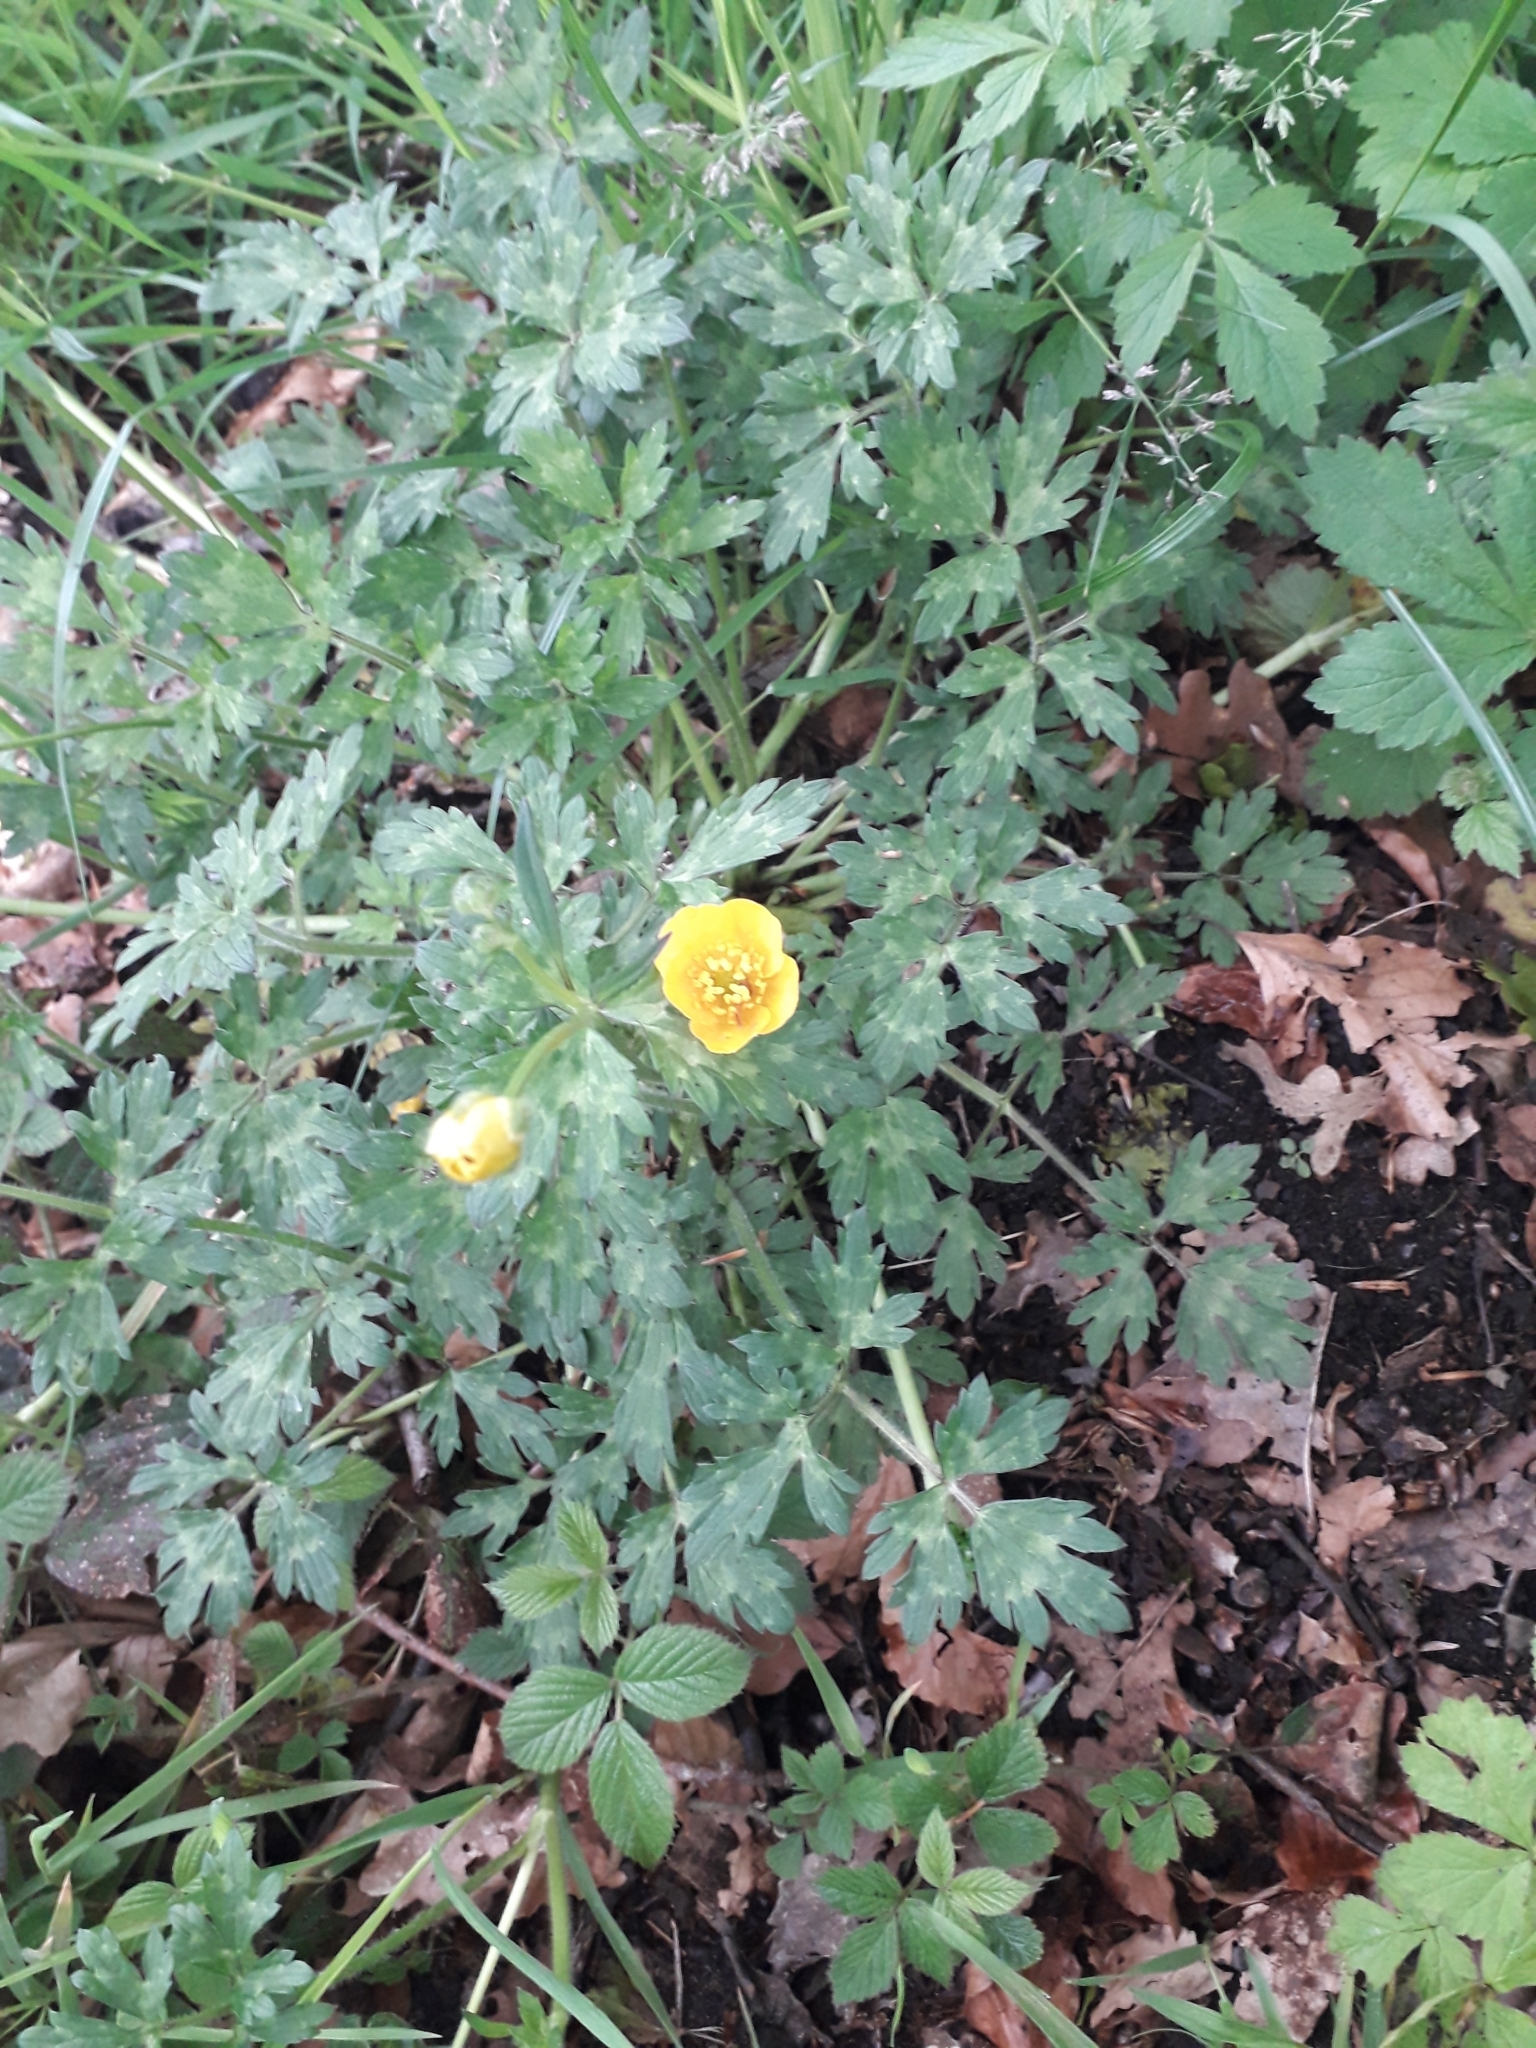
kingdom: Plantae
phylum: Tracheophyta
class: Magnoliopsida
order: Ranunculales
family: Ranunculaceae
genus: Ranunculus
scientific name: Ranunculus repens
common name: Creeping buttercup
